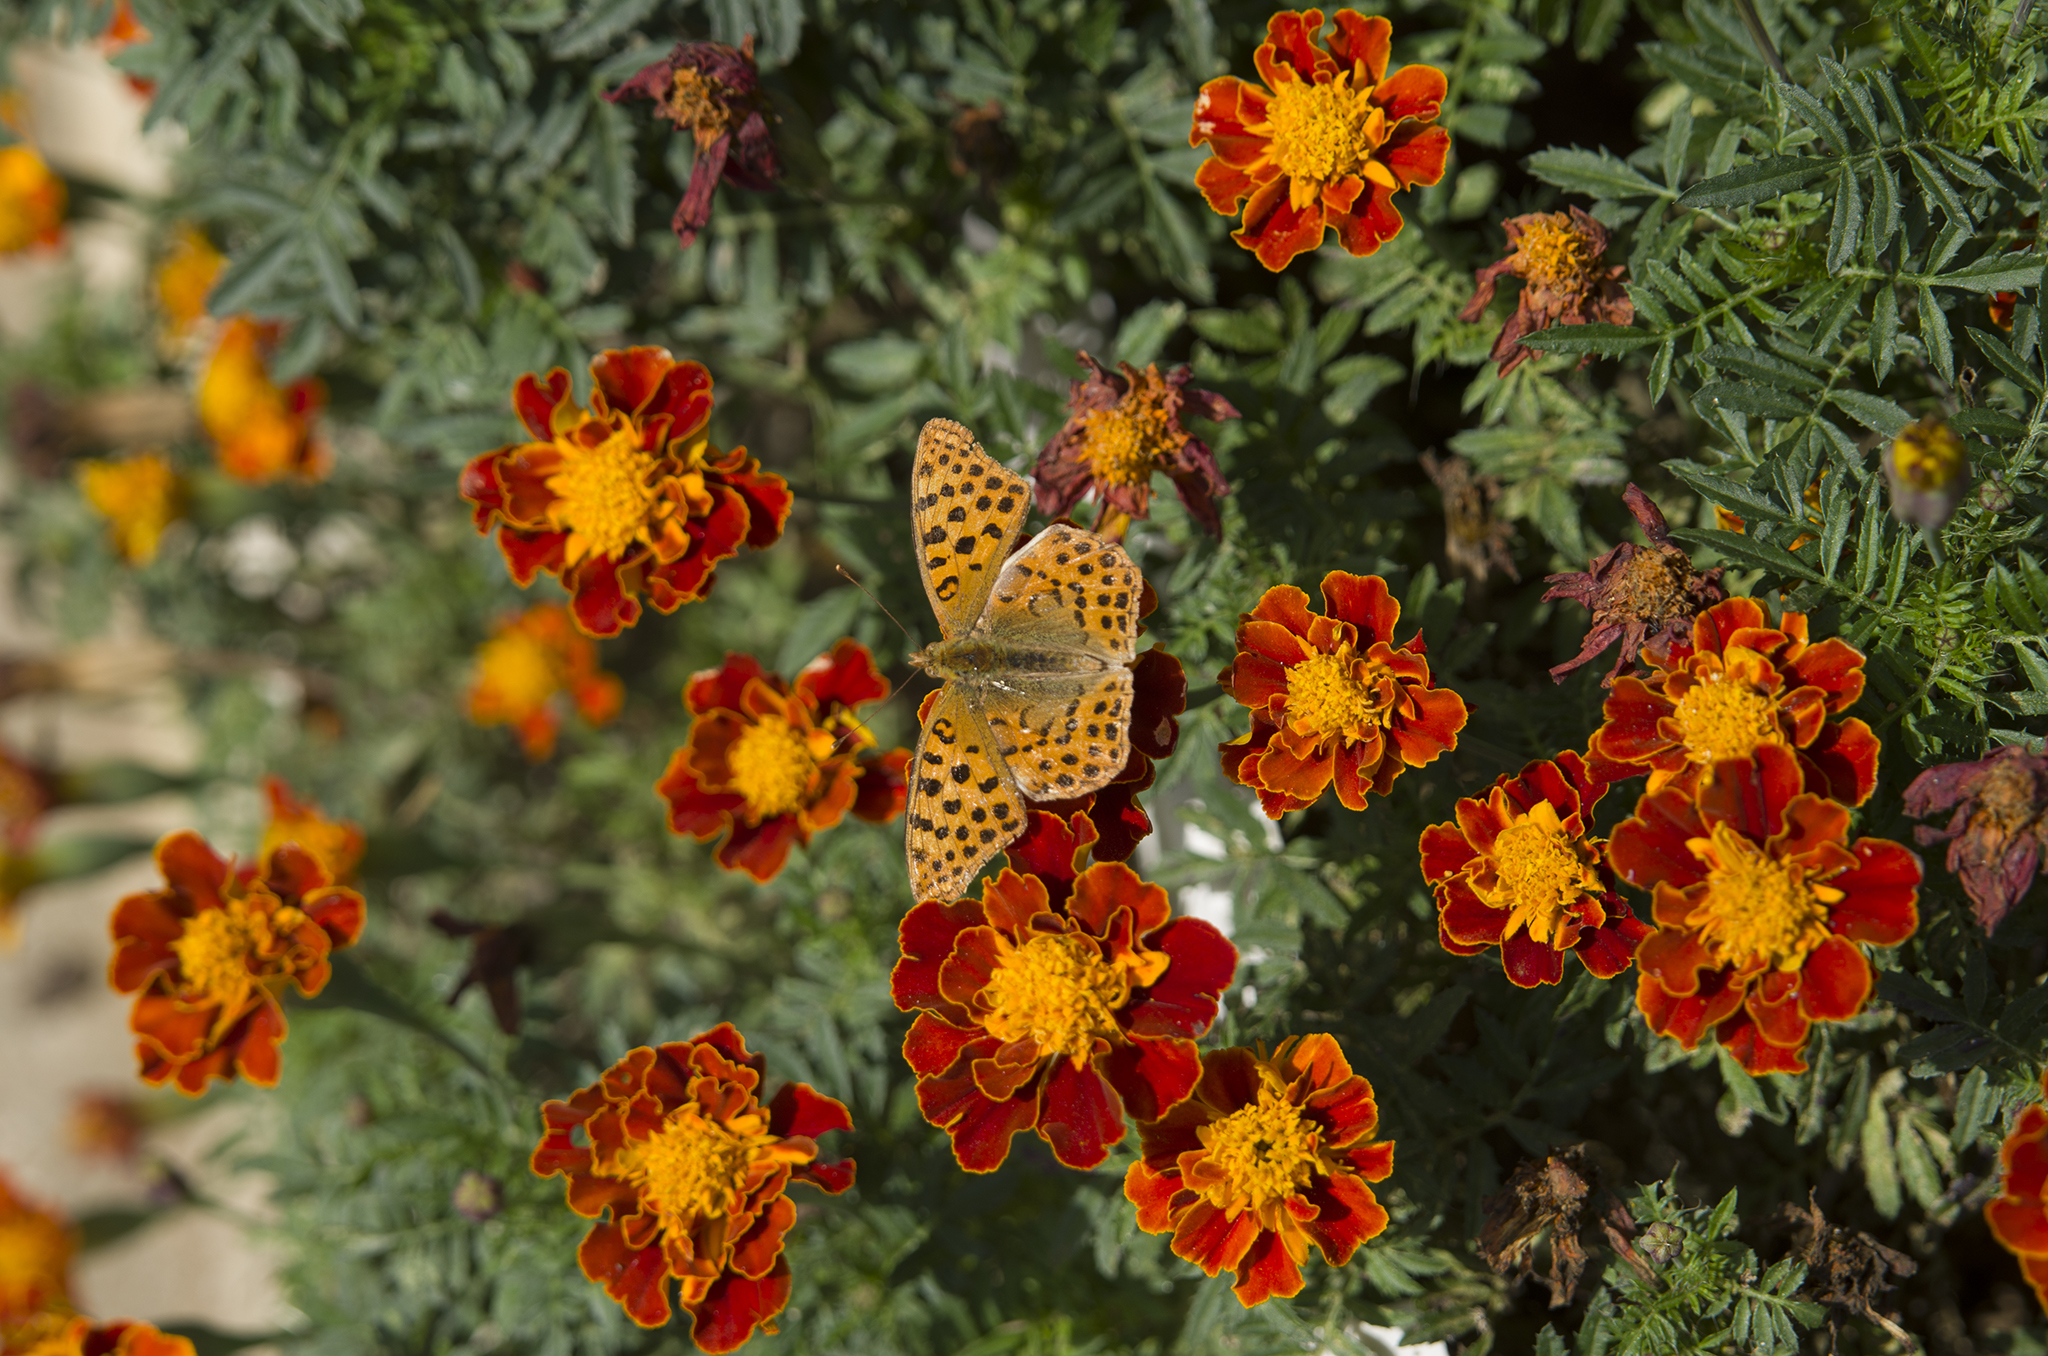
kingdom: Animalia
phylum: Arthropoda
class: Insecta
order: Lepidoptera
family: Nymphalidae
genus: Issoria
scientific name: Issoria lathonia
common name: Queen of spain fritillary
